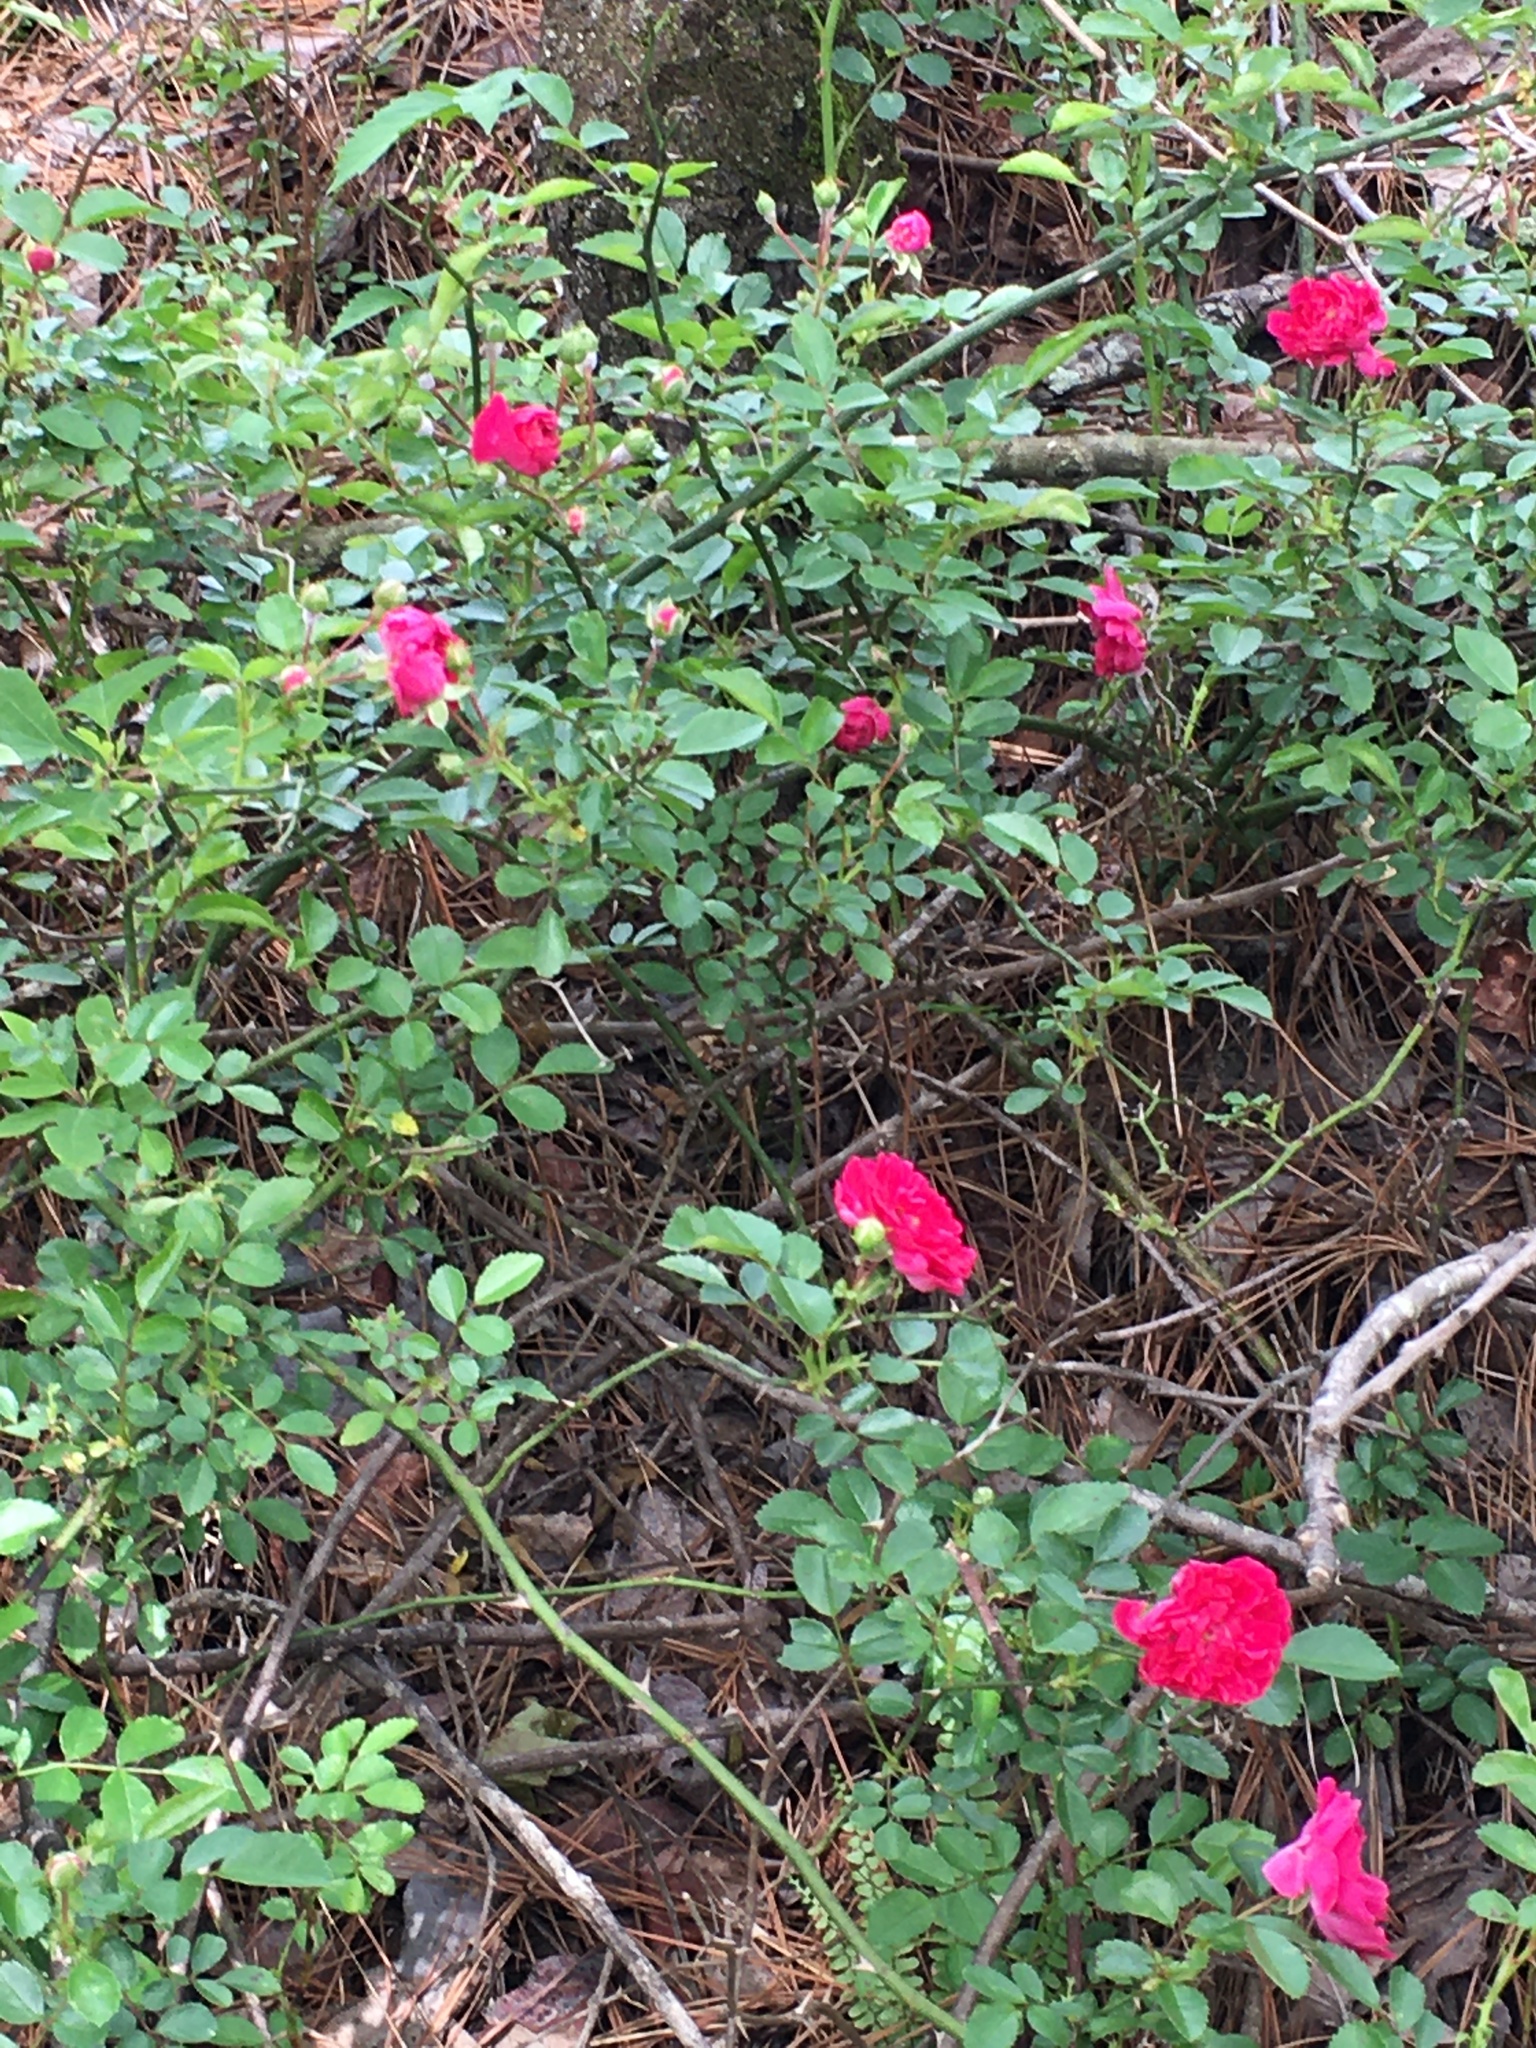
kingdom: Plantae
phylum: Tracheophyta
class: Magnoliopsida
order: Rosales
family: Rosaceae
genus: Rosa
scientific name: Rosa
